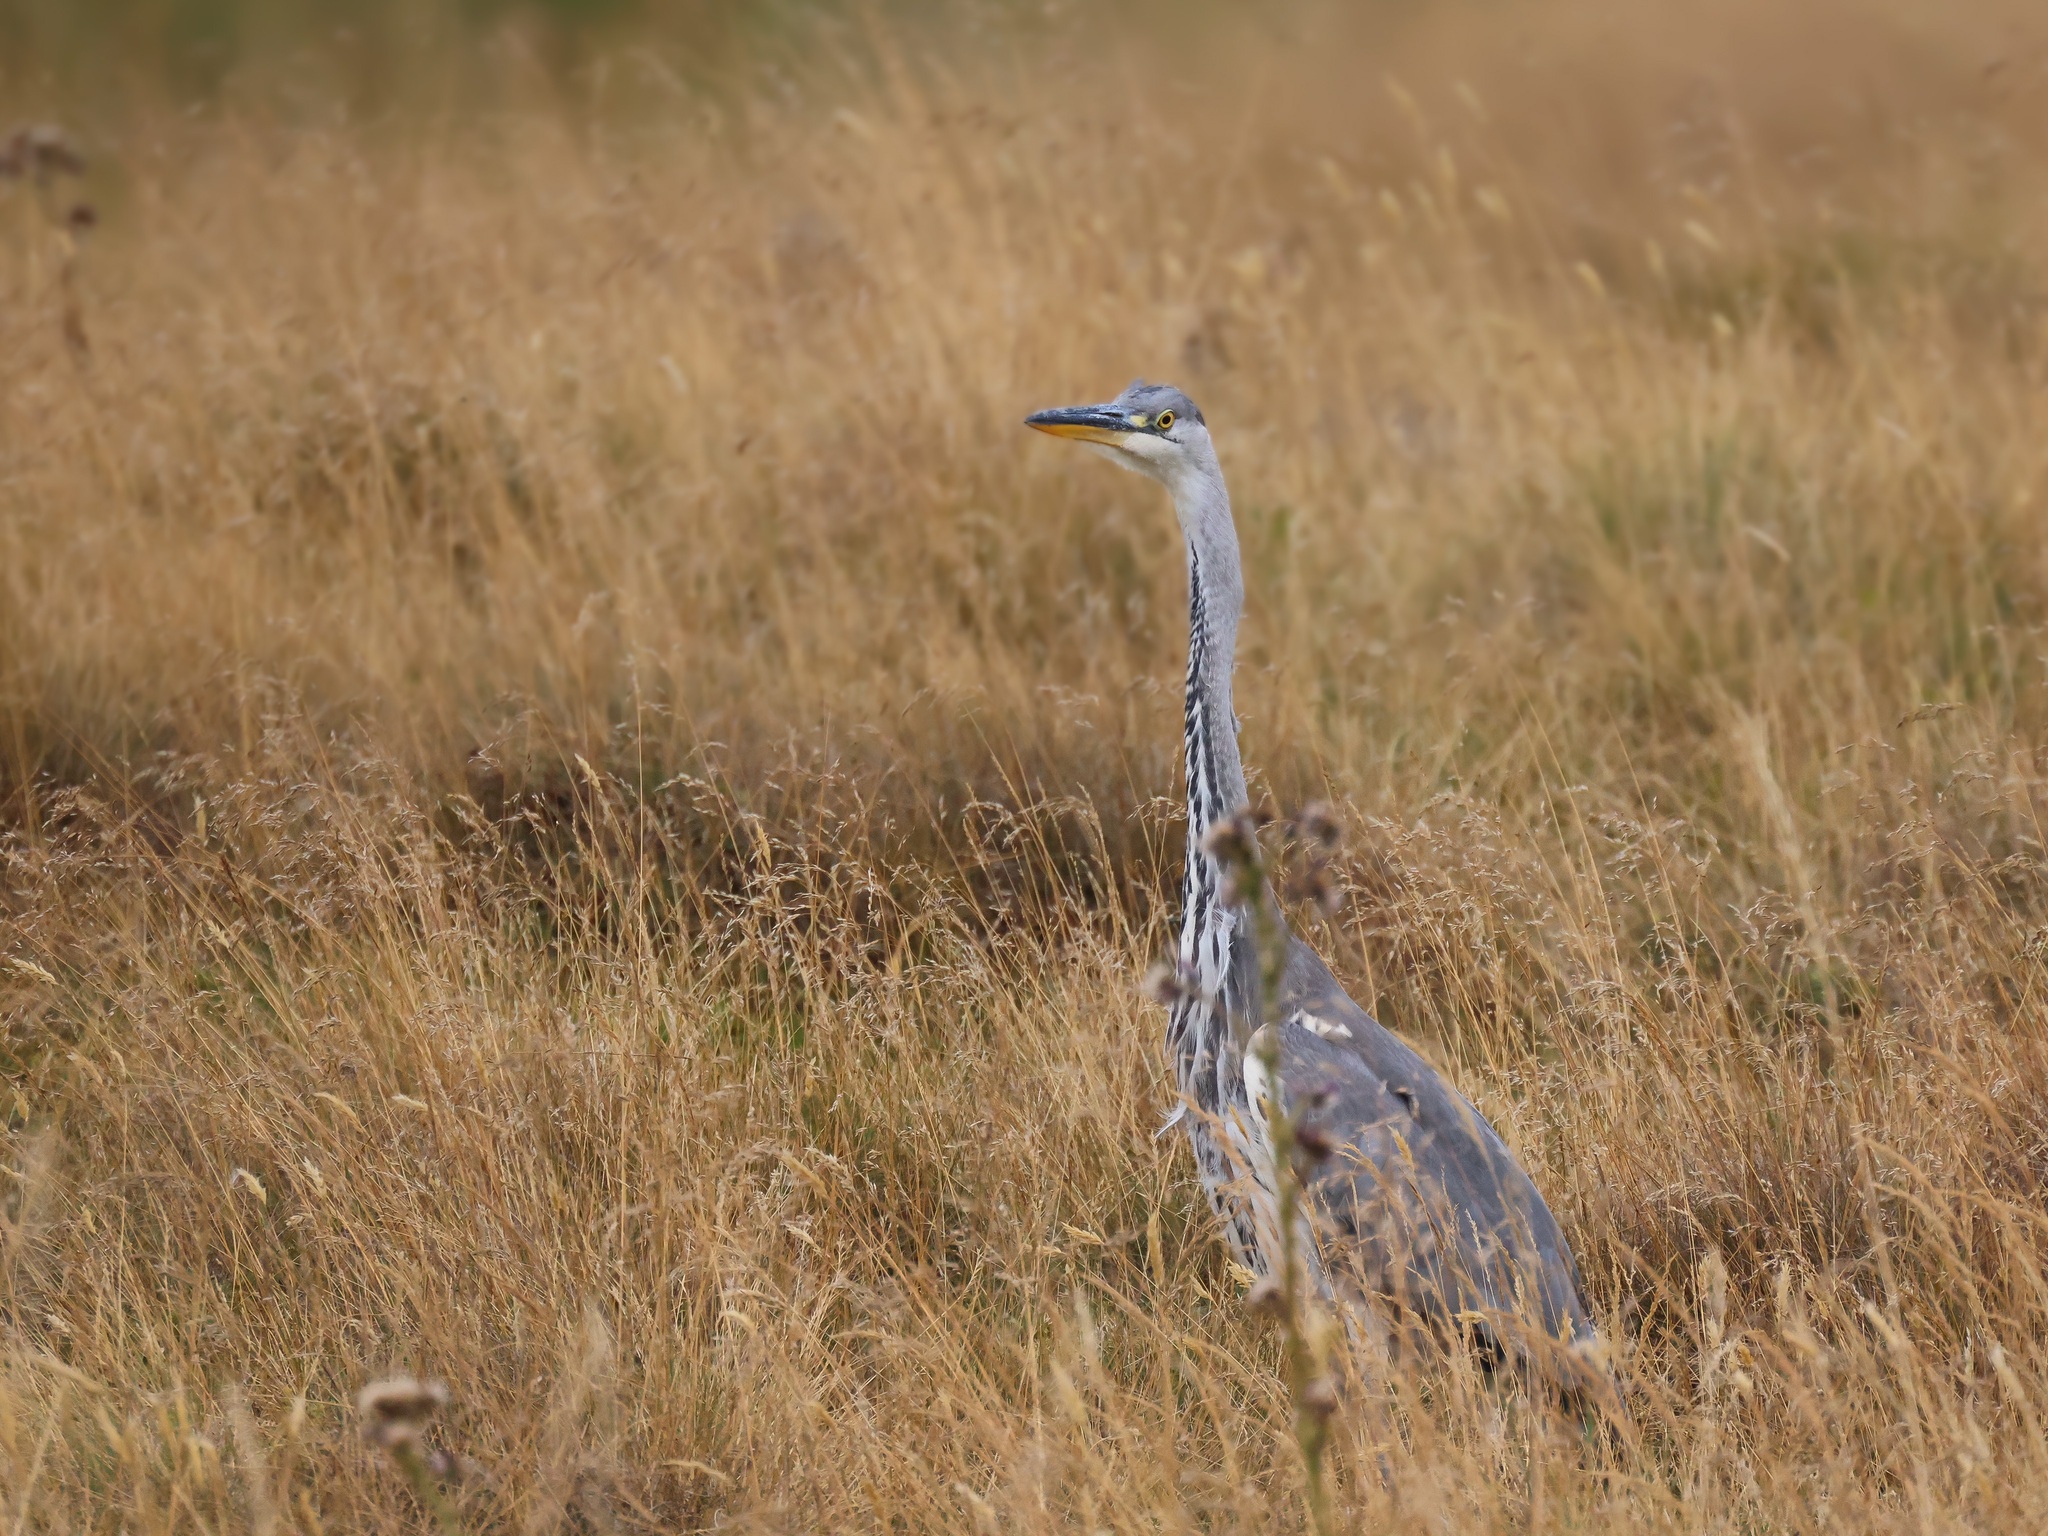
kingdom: Animalia
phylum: Chordata
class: Aves
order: Pelecaniformes
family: Ardeidae
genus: Ardea
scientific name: Ardea cinerea
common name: Grey heron
